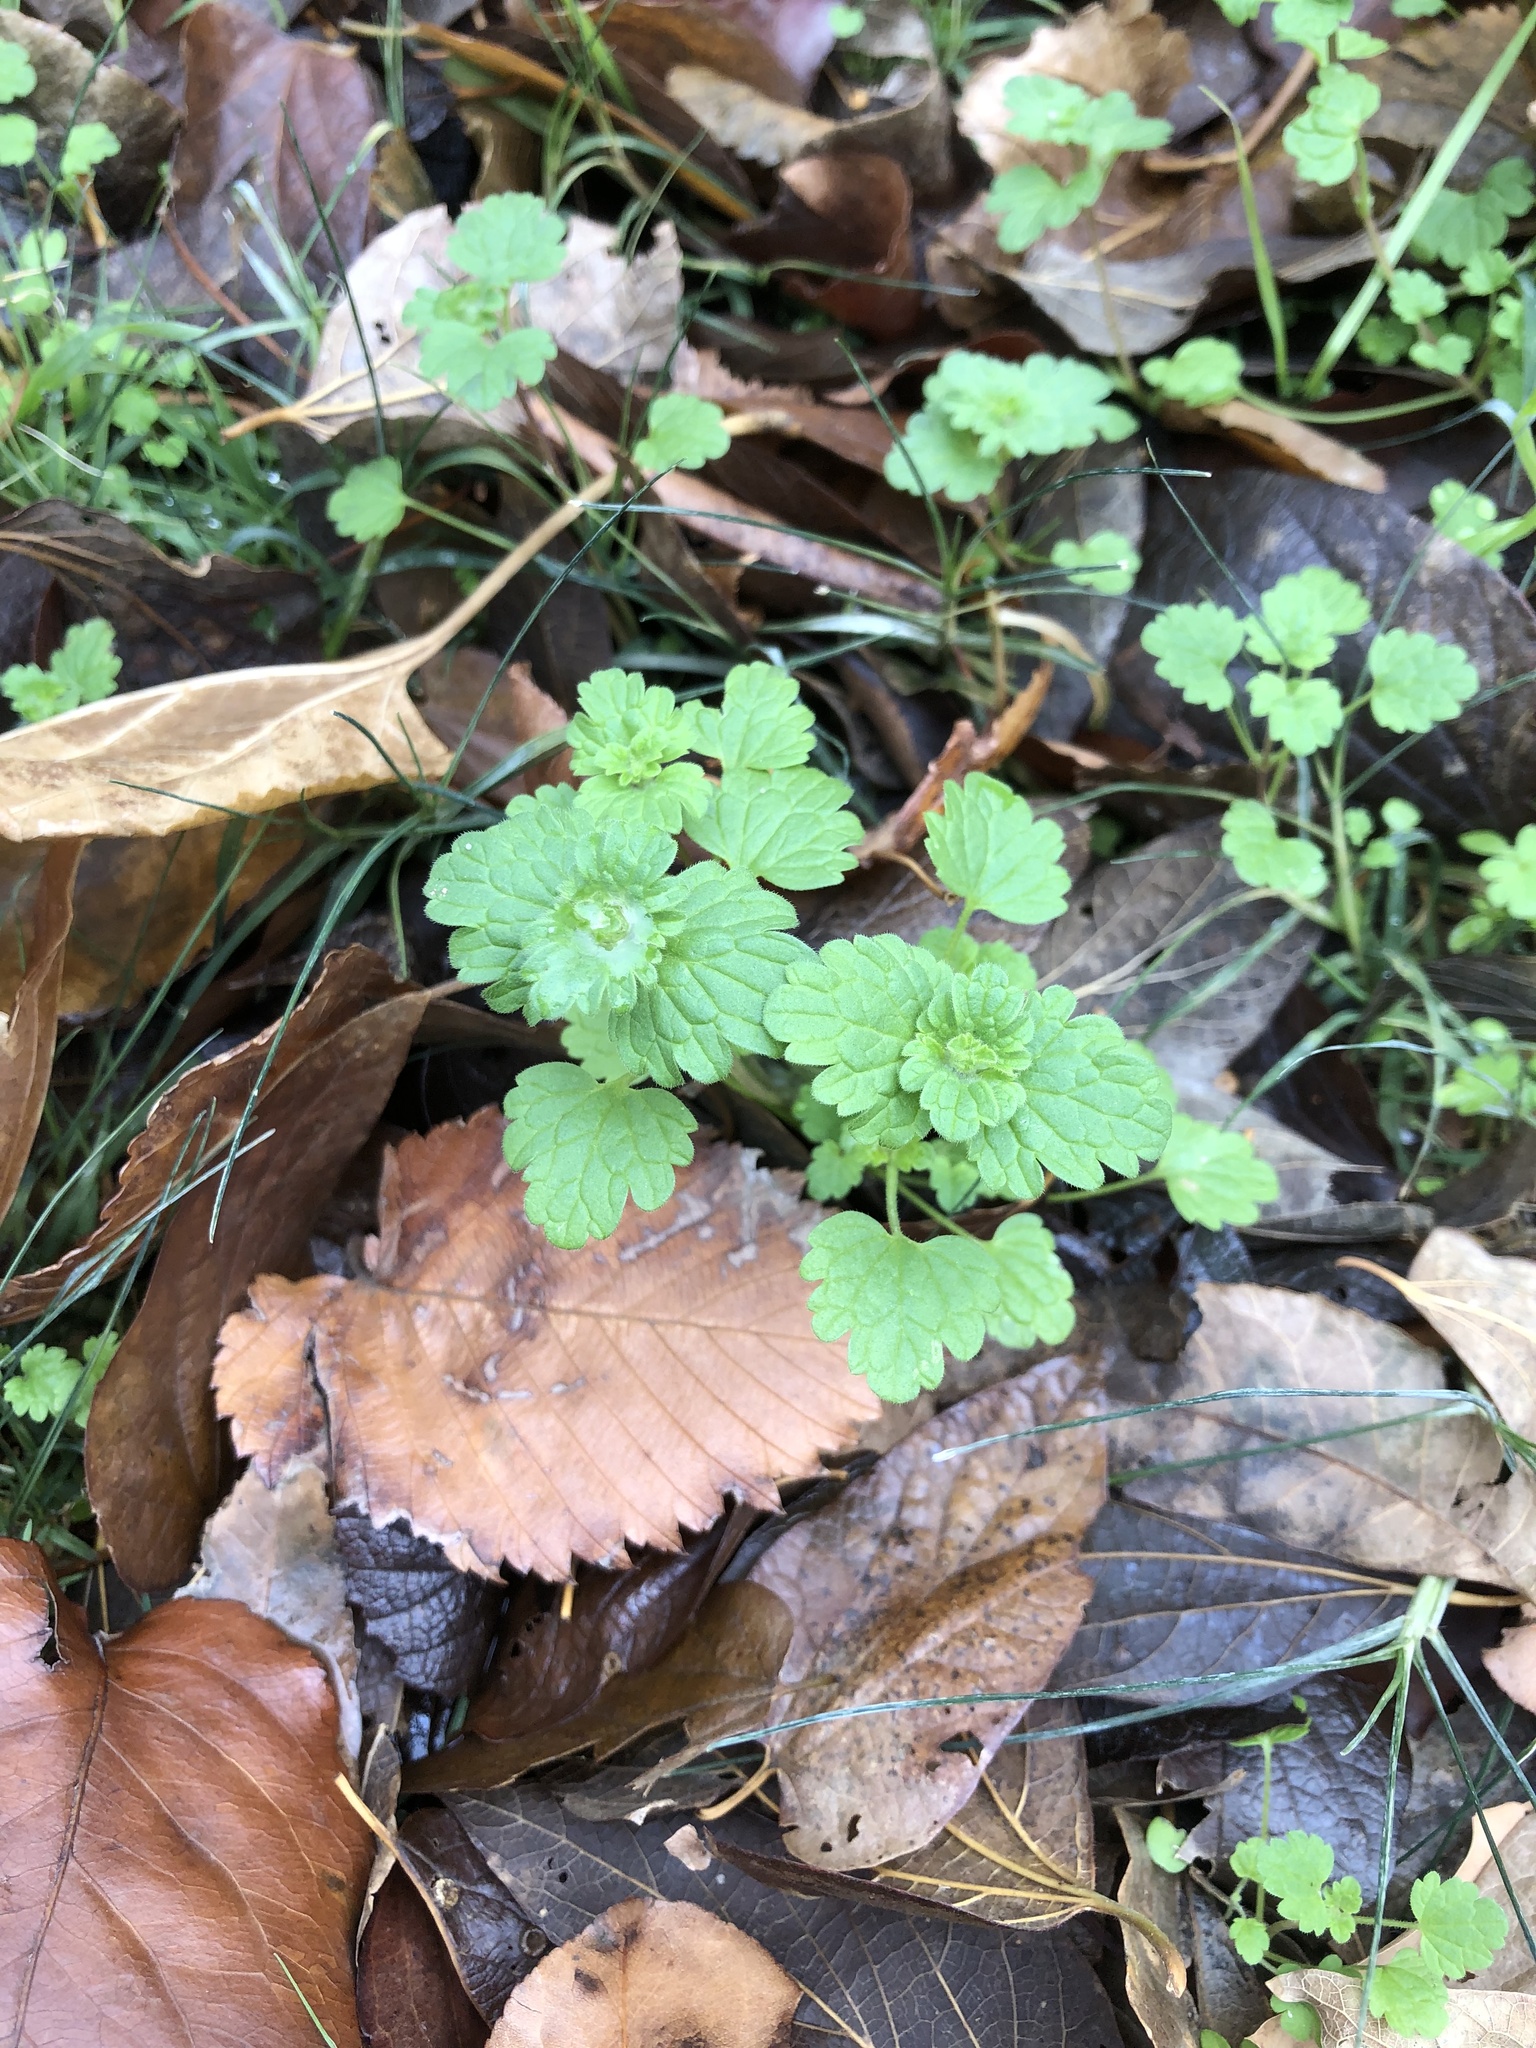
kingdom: Plantae
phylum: Tracheophyta
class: Magnoliopsida
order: Lamiales
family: Lamiaceae
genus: Lamium
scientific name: Lamium amplexicaule
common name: Henbit dead-nettle
